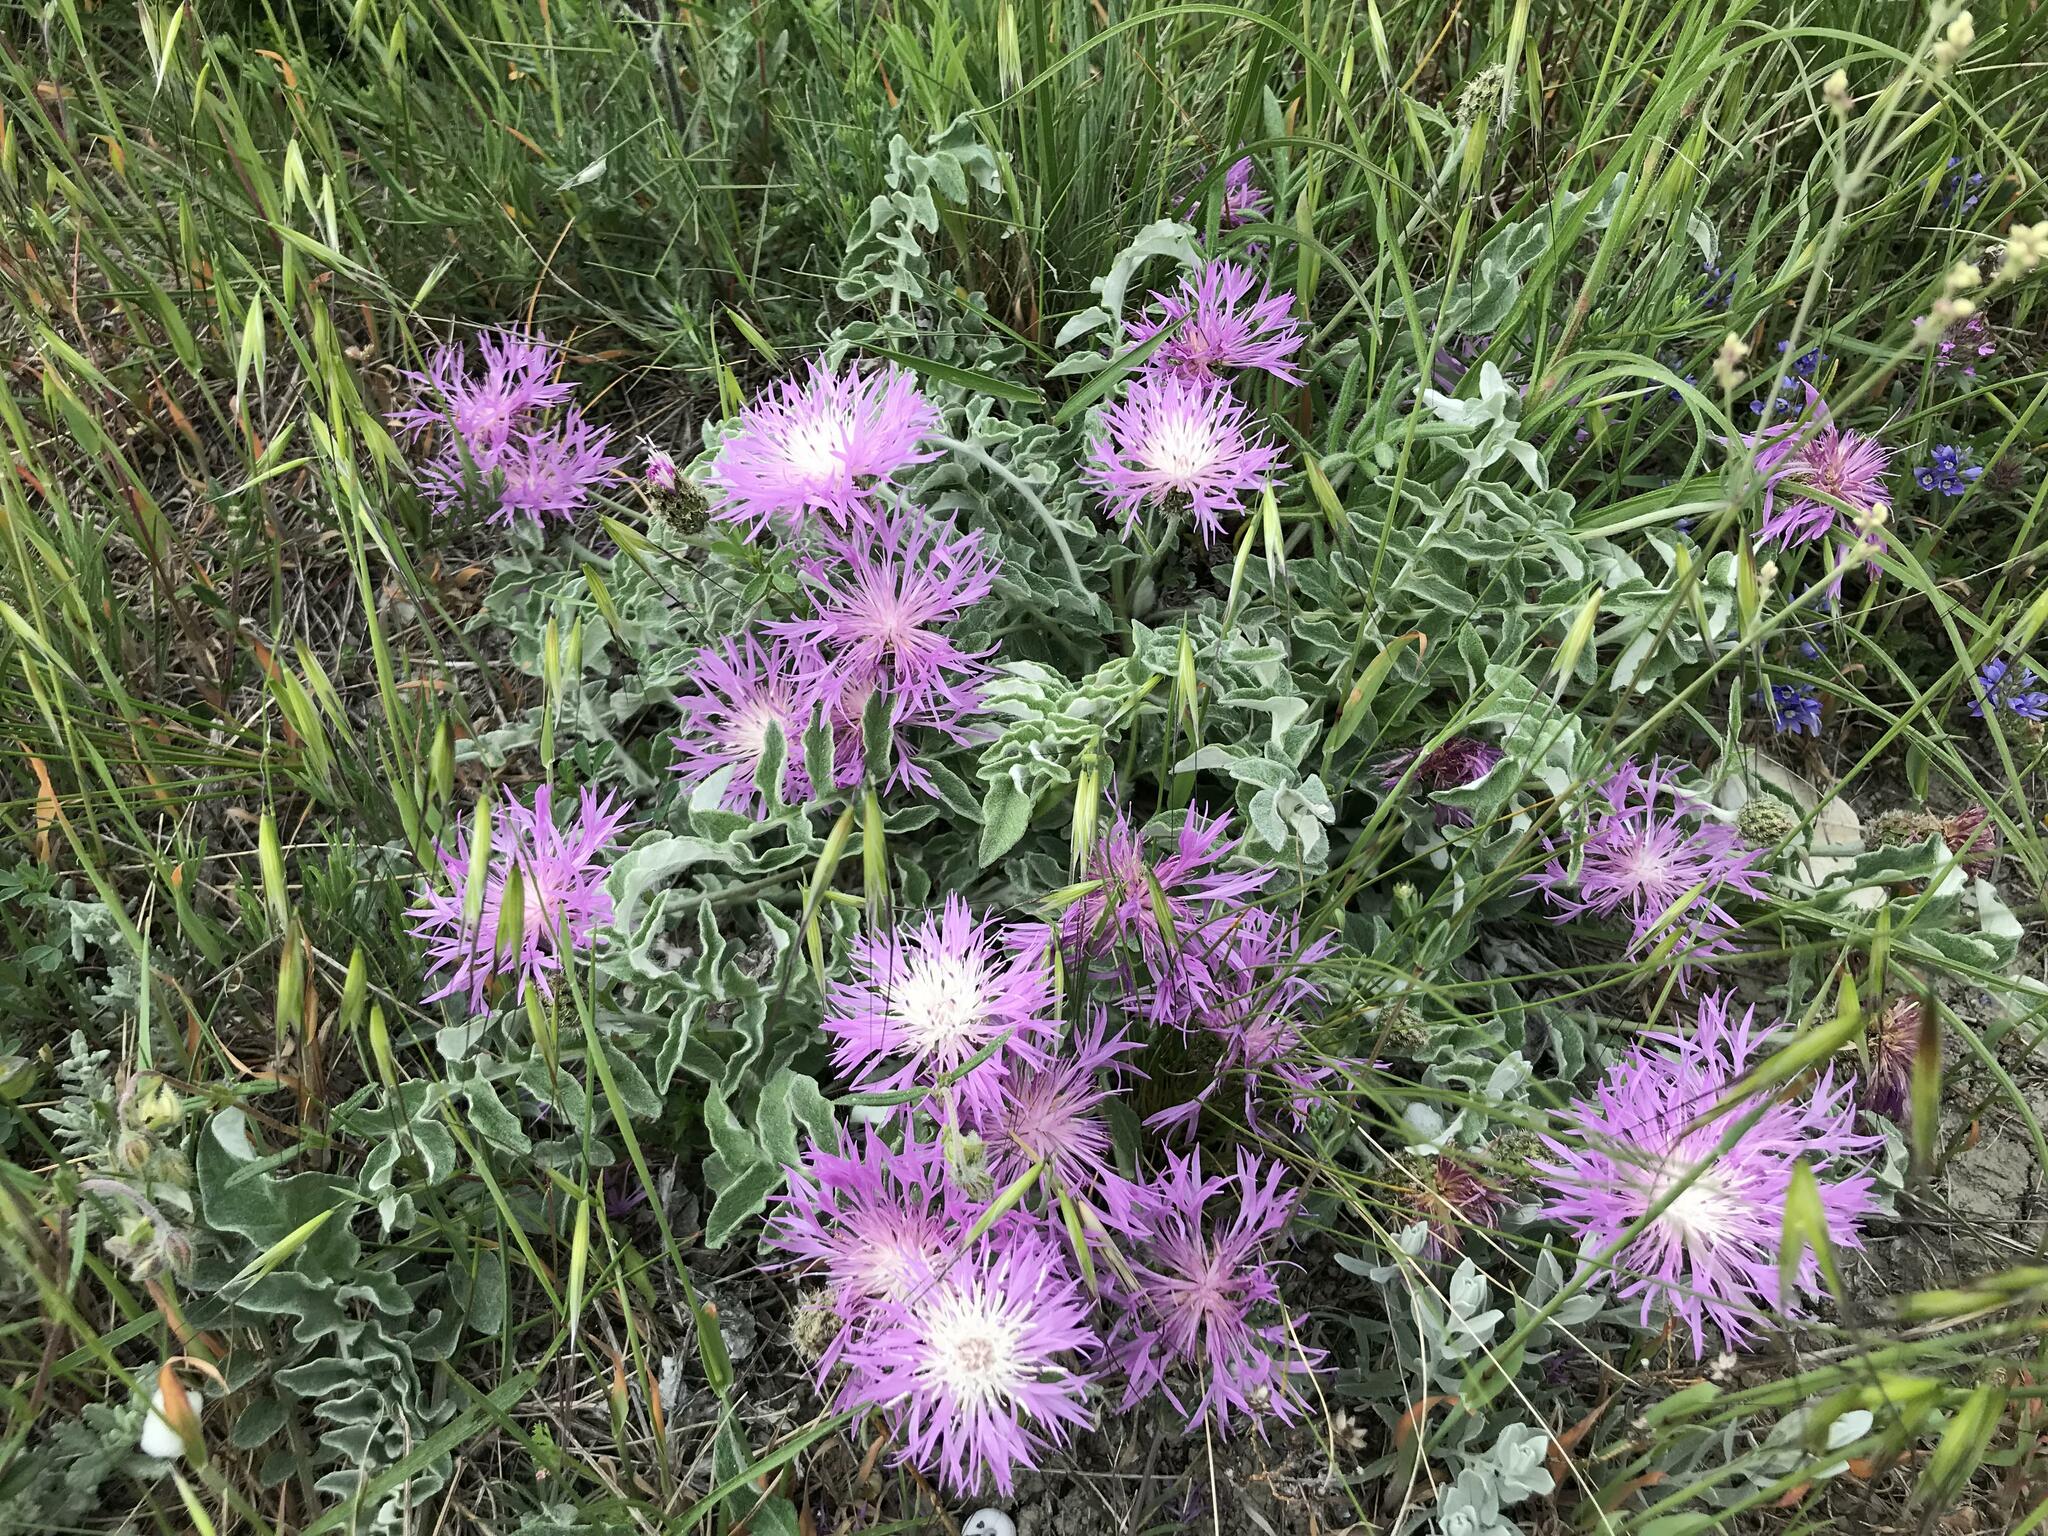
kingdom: Plantae
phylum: Tracheophyta
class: Magnoliopsida
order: Asterales
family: Asteraceae
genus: Psephellus
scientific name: Psephellus declinatus
